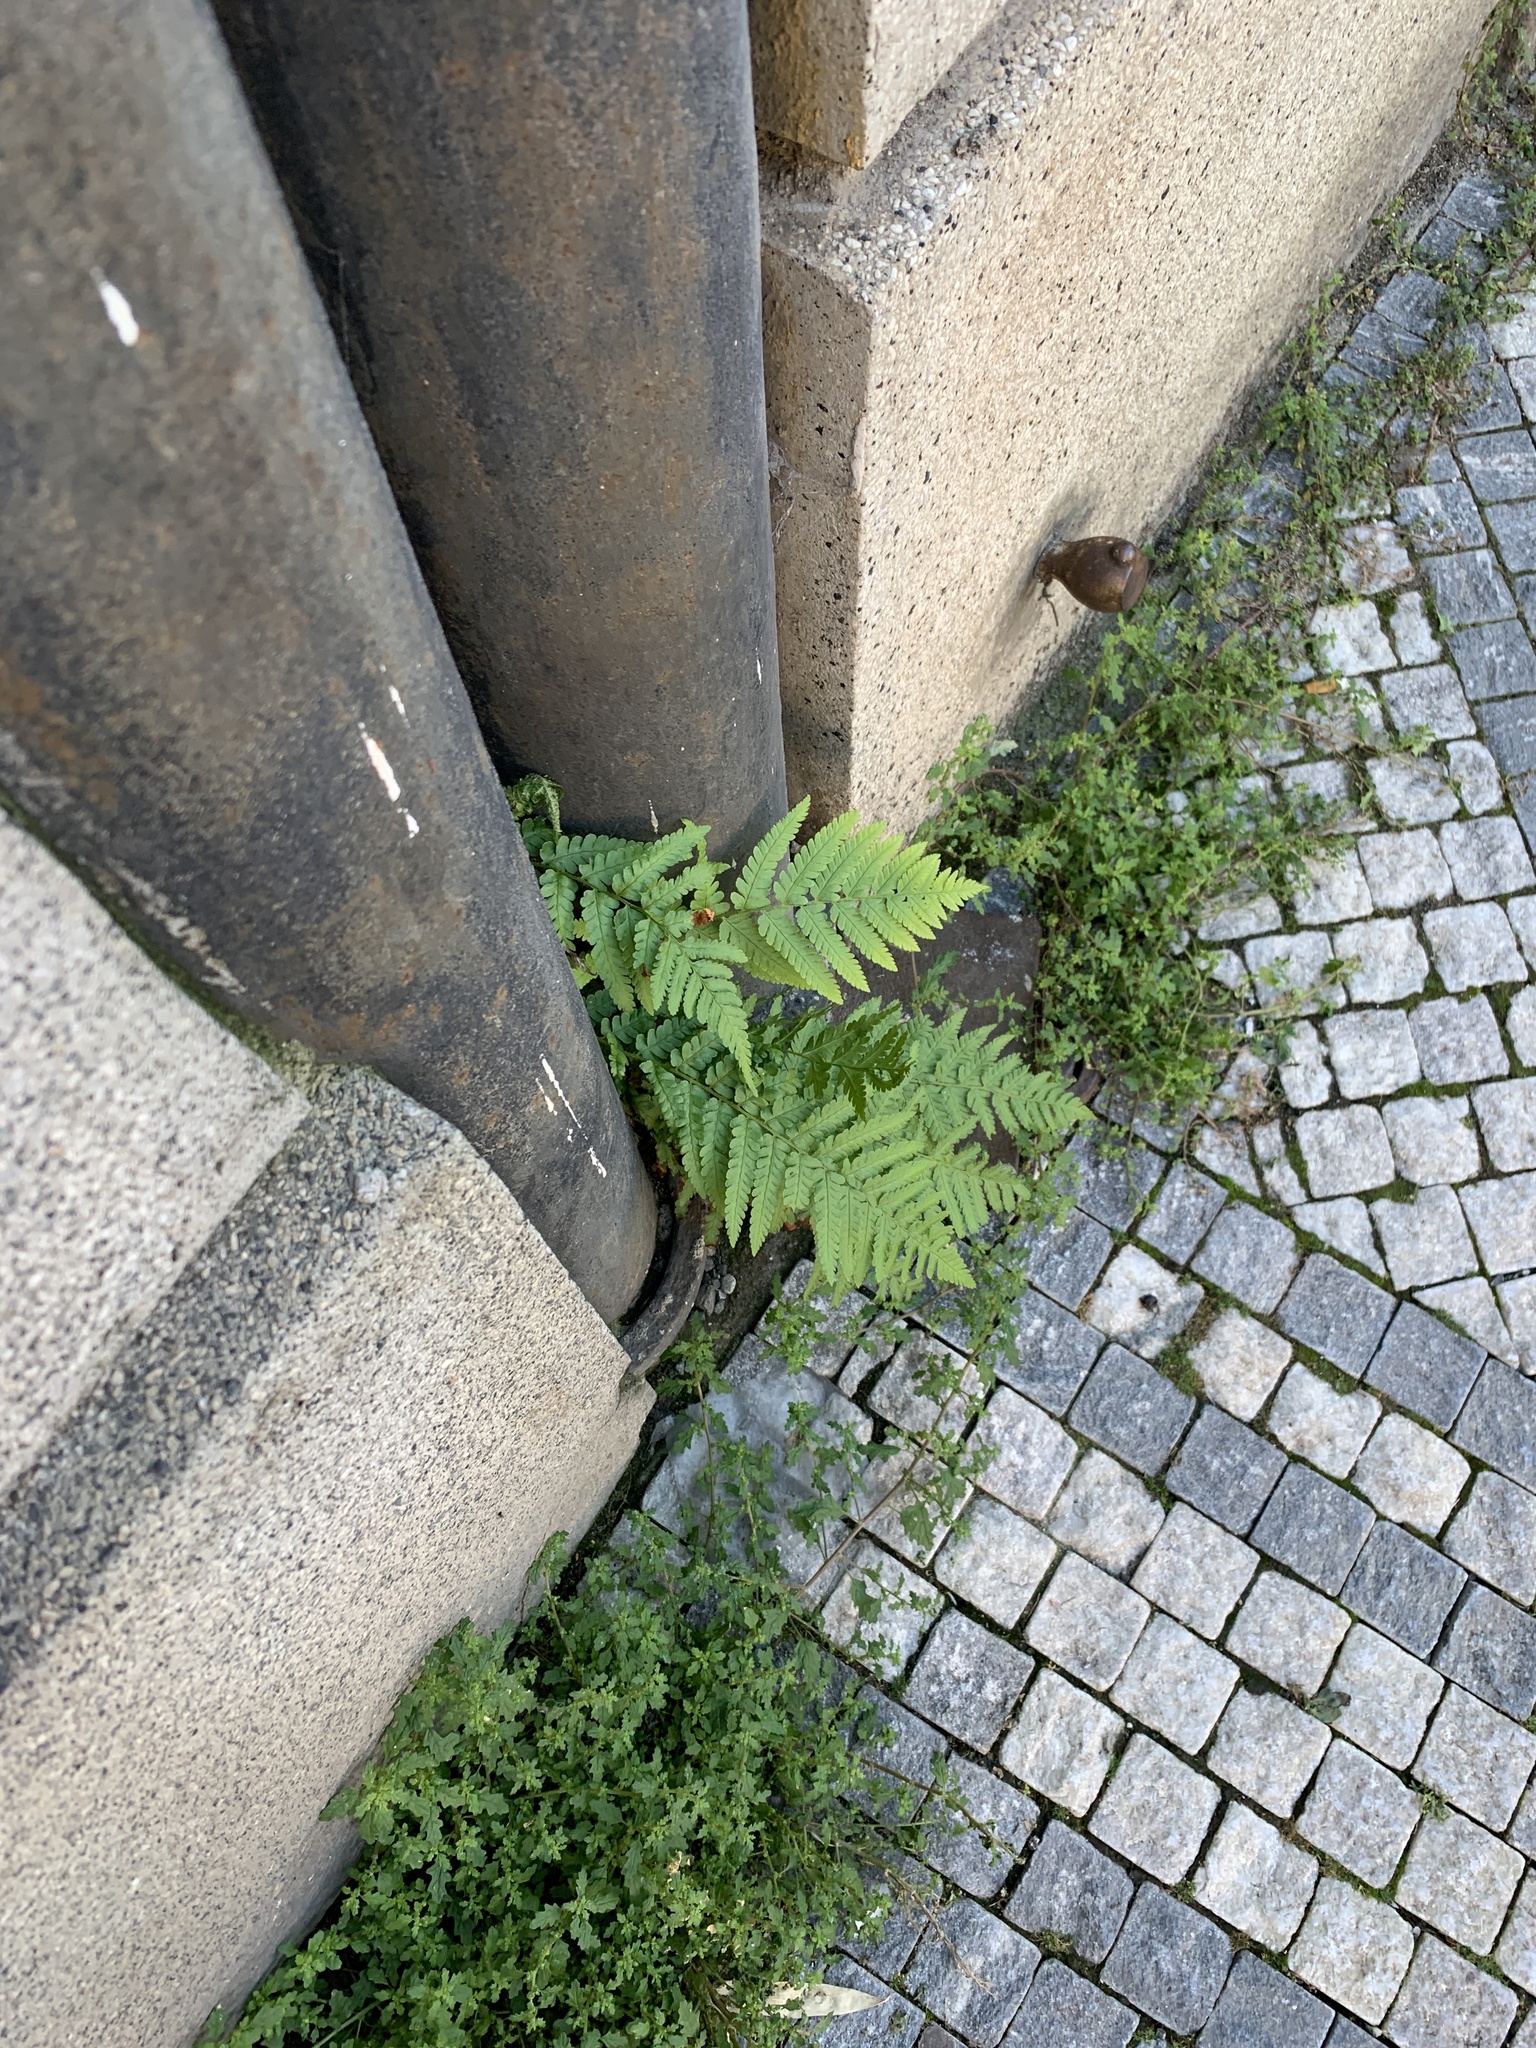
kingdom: Plantae
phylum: Tracheophyta
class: Polypodiopsida
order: Polypodiales
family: Dryopteridaceae
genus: Dryopteris
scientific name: Dryopteris filix-mas
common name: Male fern
